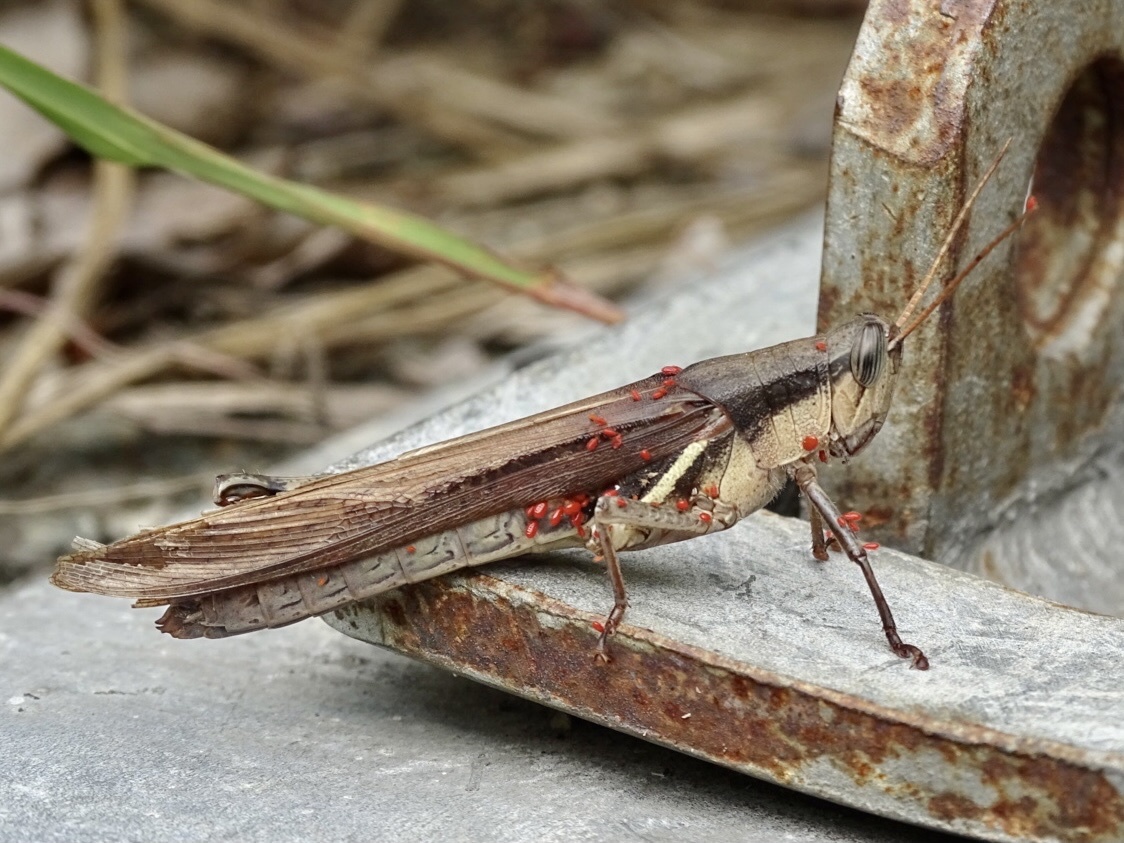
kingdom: Animalia
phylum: Arthropoda
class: Insecta
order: Orthoptera
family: Acrididae
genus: Stenocatantops
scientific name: Stenocatantops mistshenkoi
